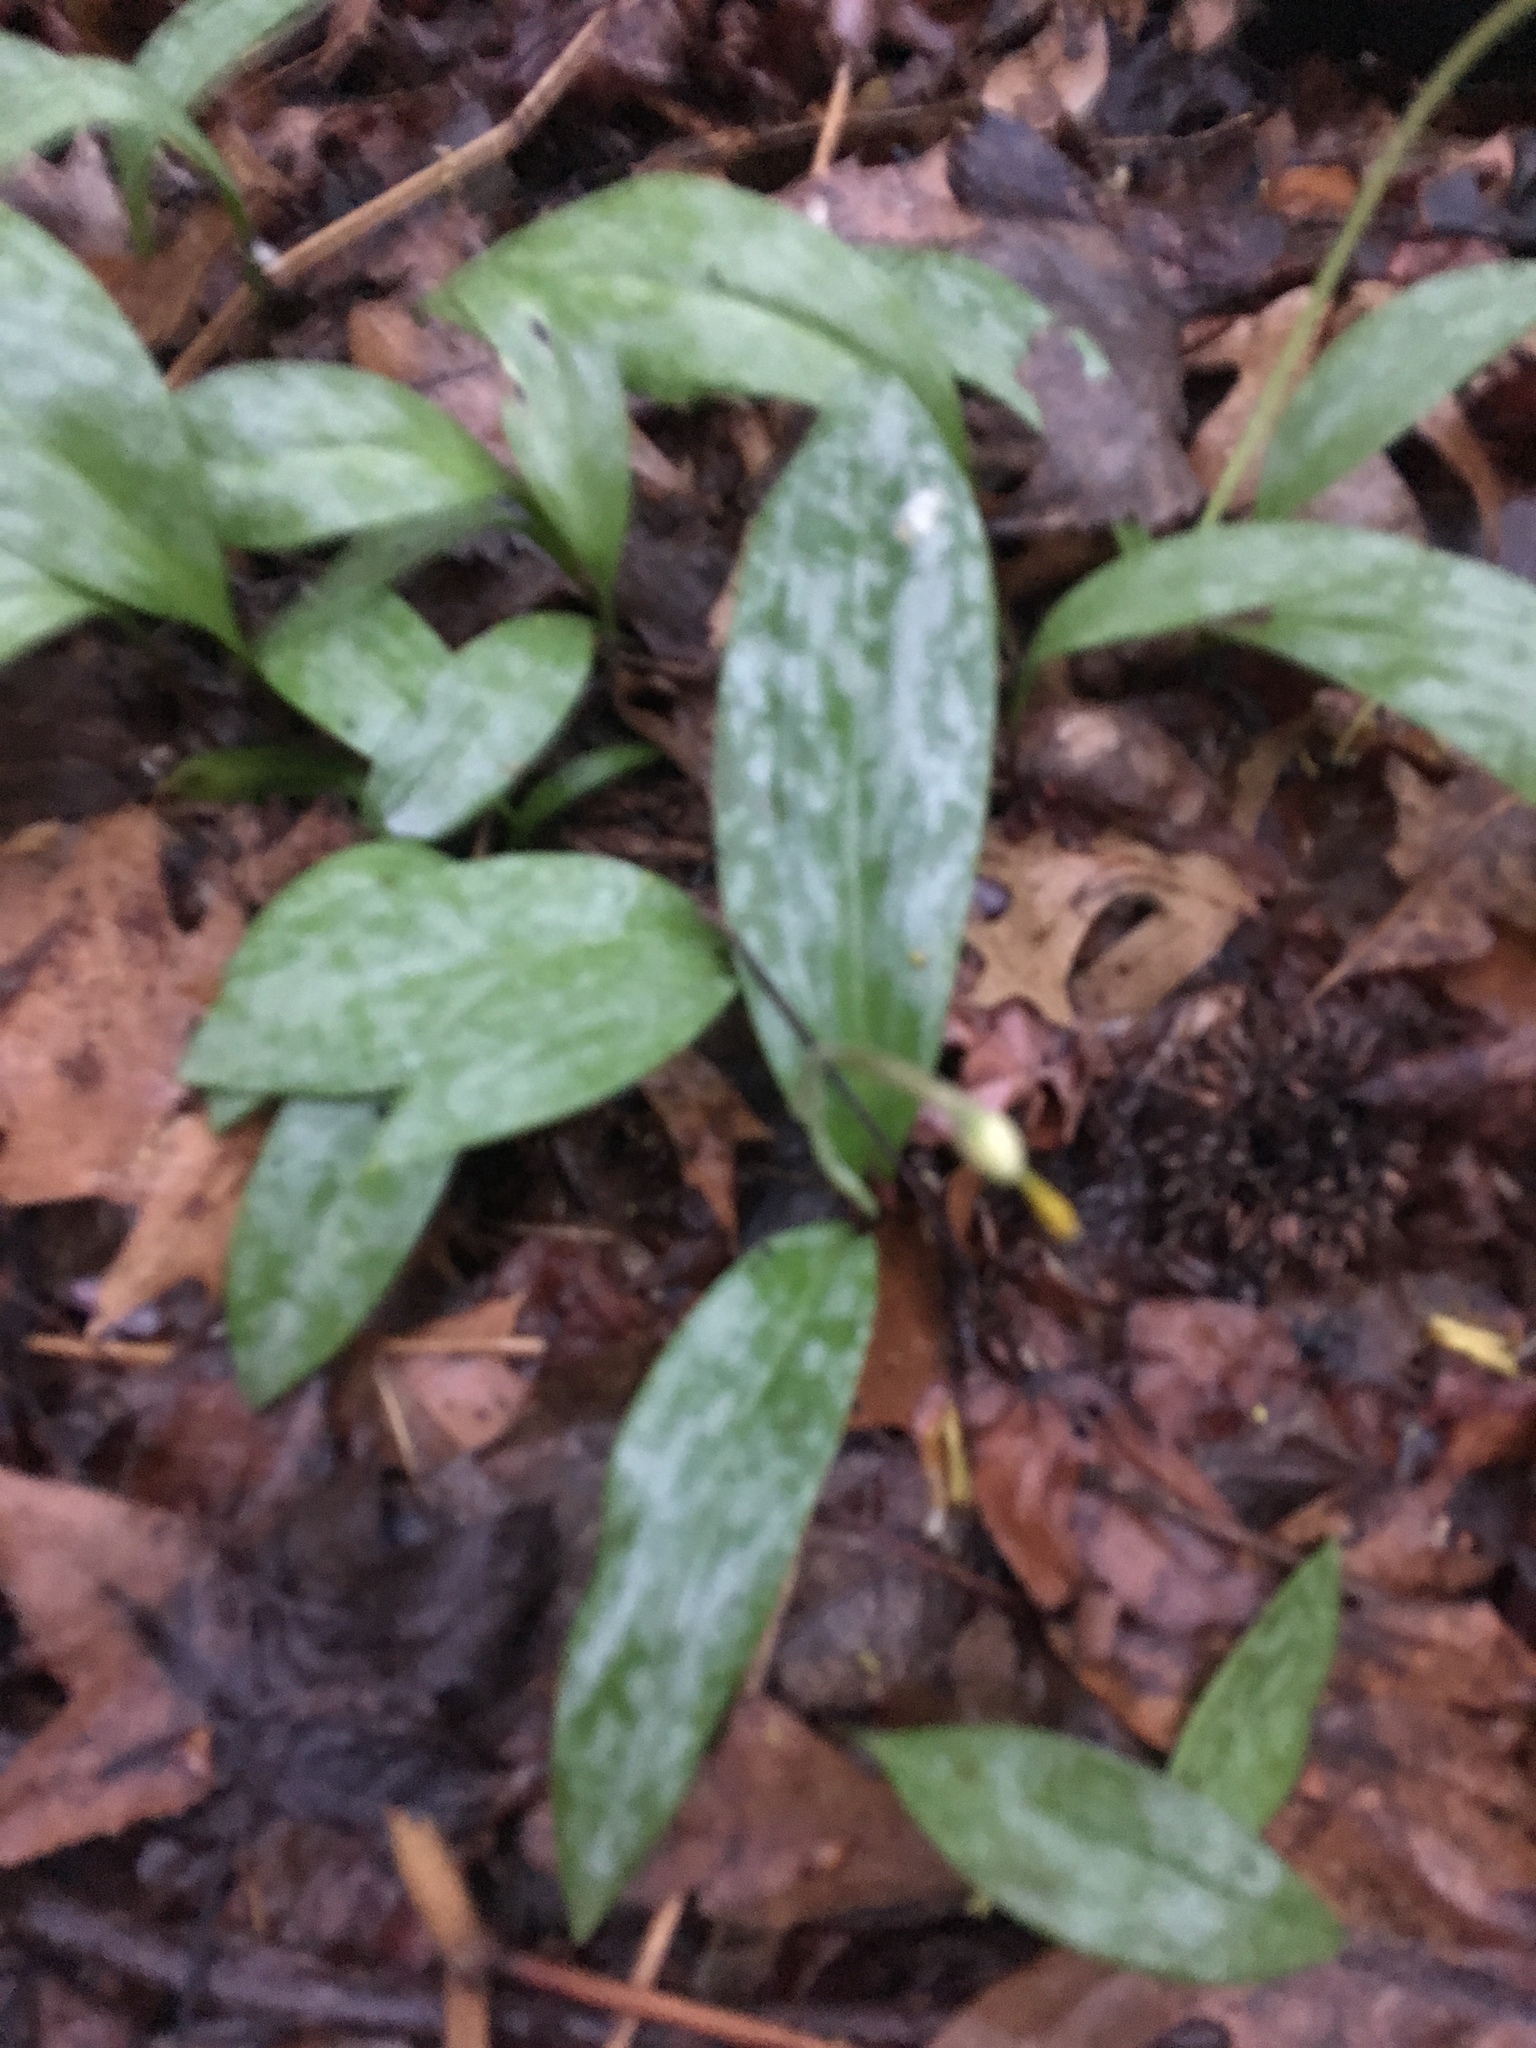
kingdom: Plantae
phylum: Tracheophyta
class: Liliopsida
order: Liliales
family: Liliaceae
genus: Erythronium
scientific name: Erythronium americanum
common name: Yellow adder's-tongue
